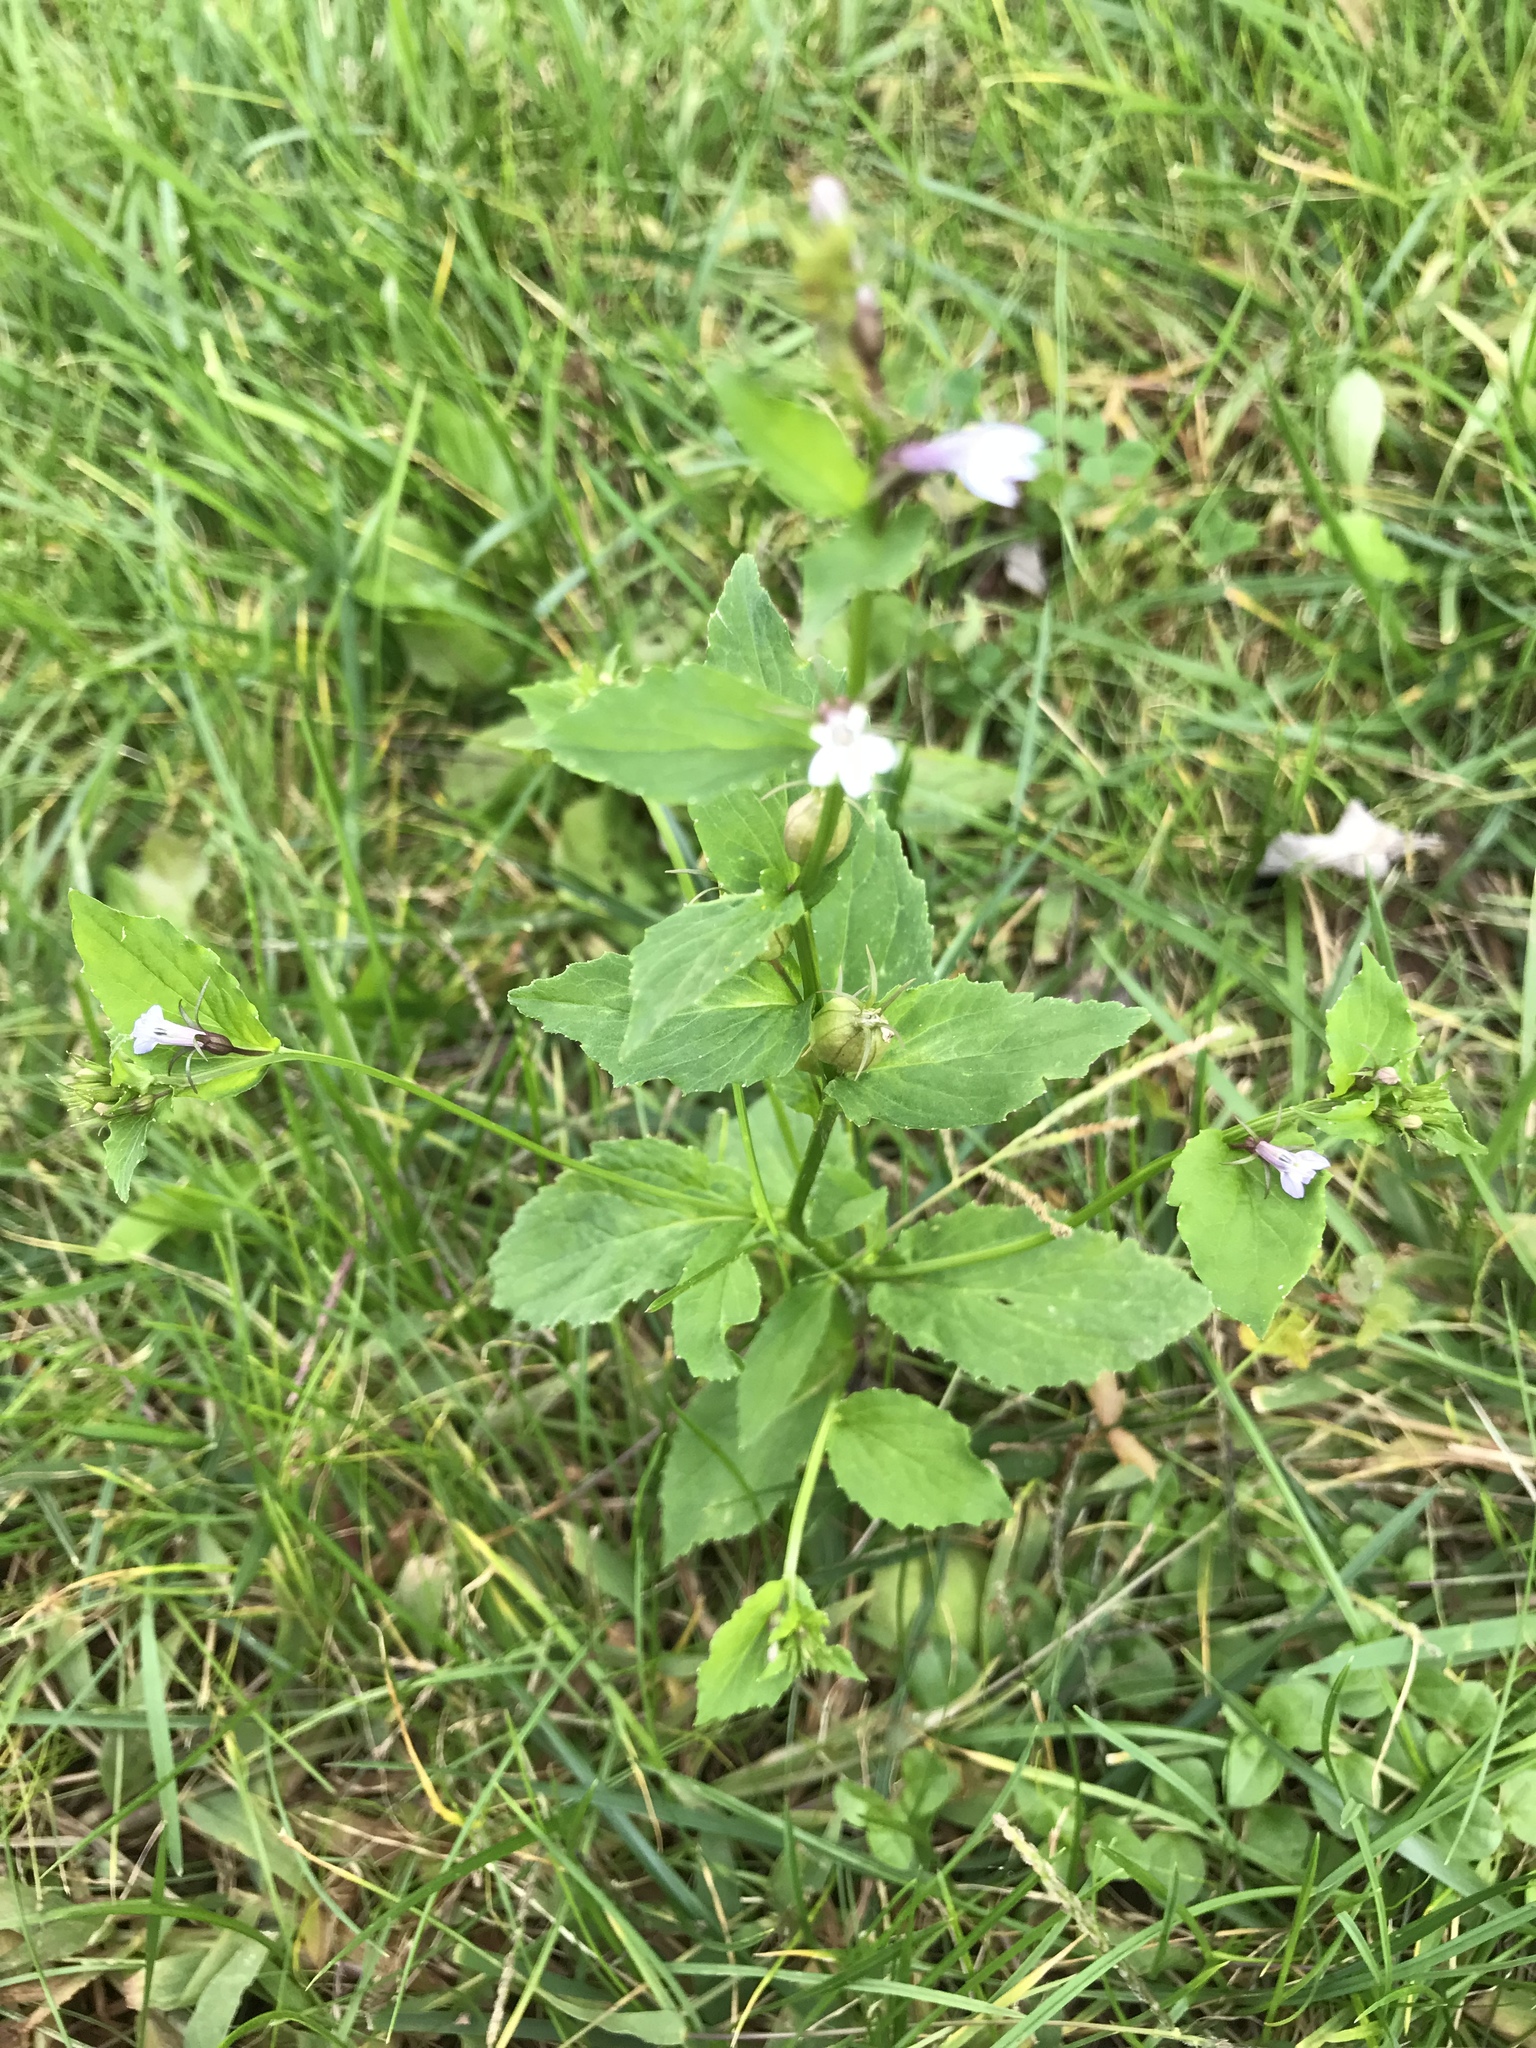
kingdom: Plantae
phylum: Tracheophyta
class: Magnoliopsida
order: Asterales
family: Campanulaceae
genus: Lobelia
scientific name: Lobelia inflata
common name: Indian tobacco
